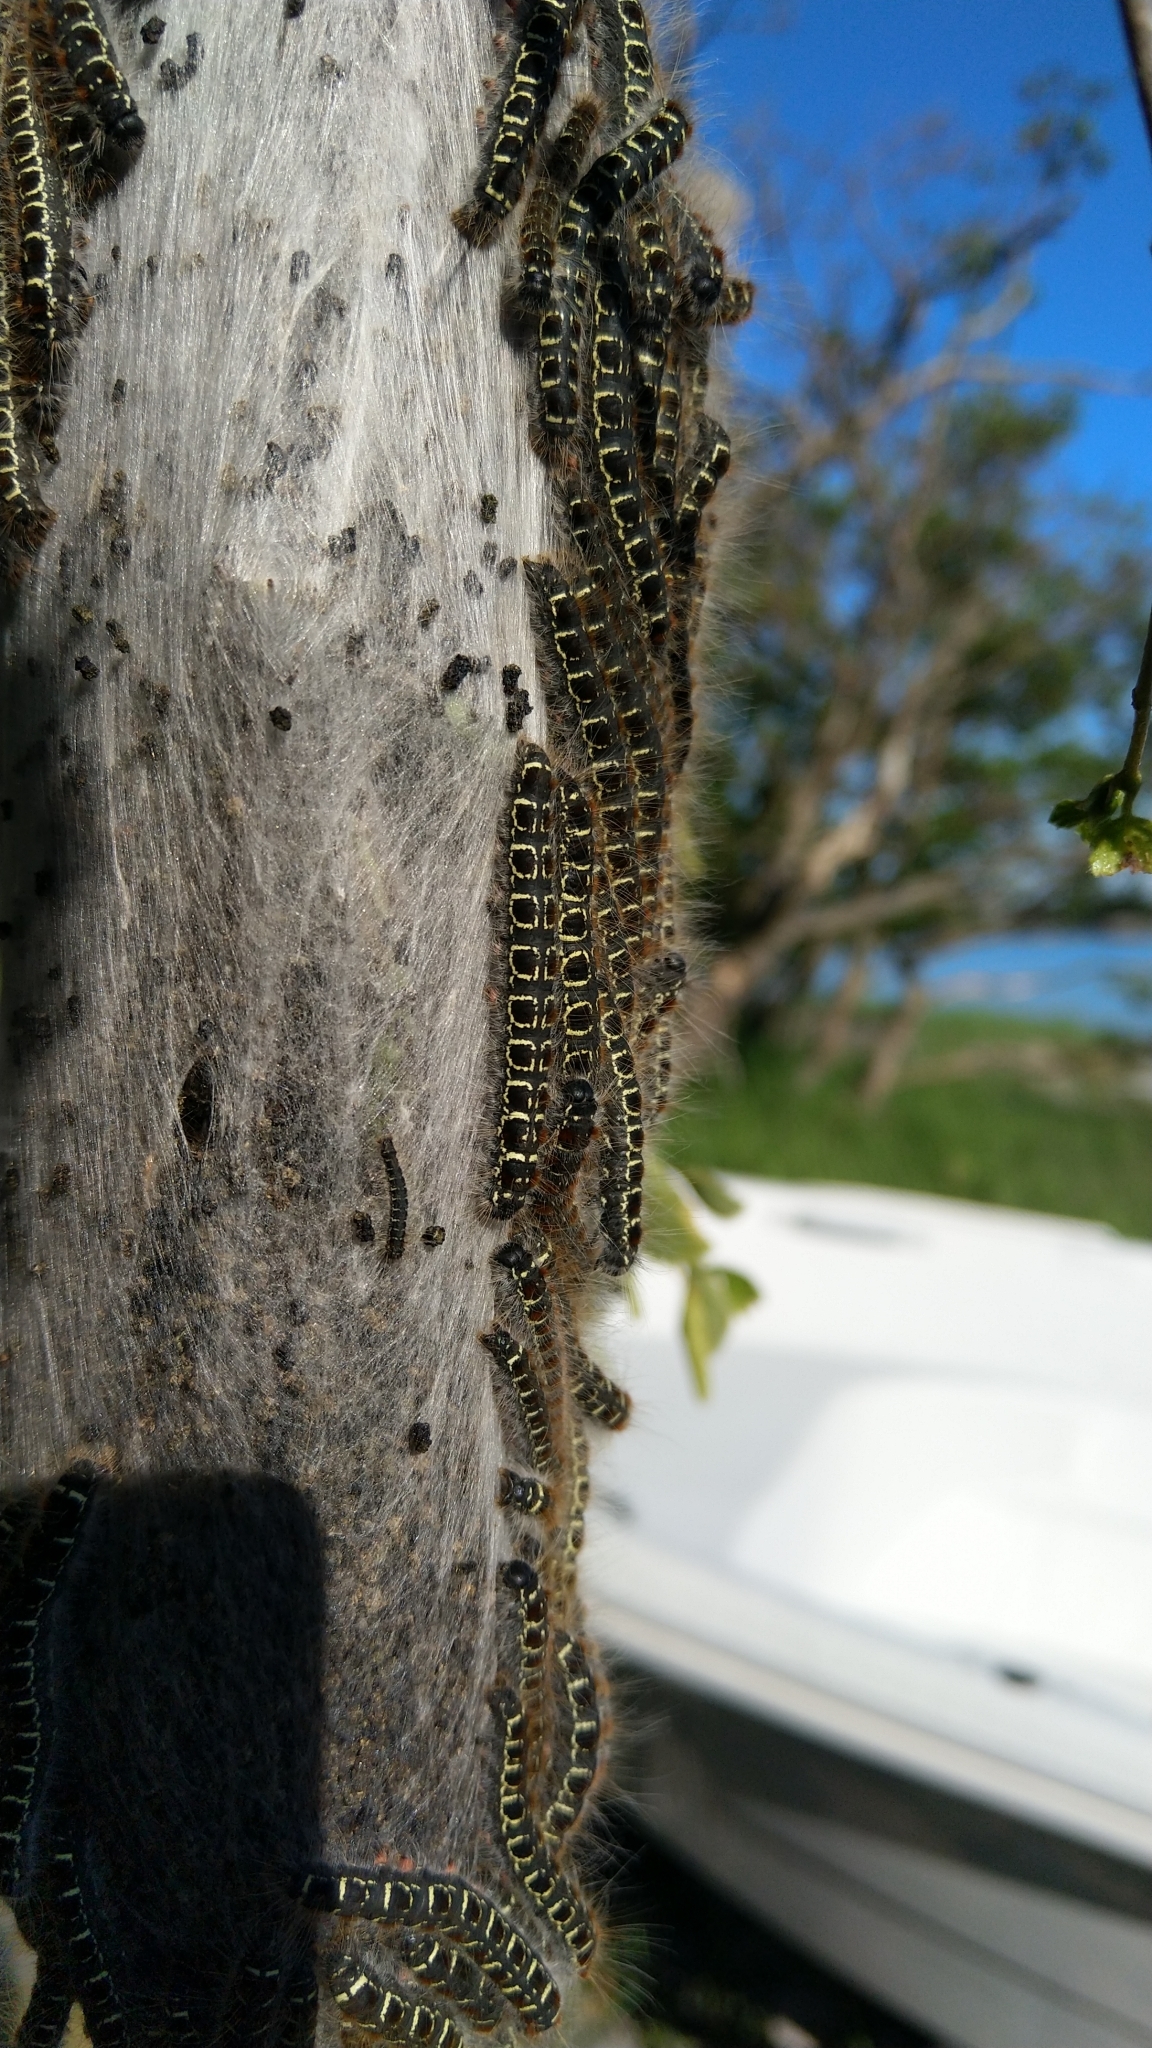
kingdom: Animalia
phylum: Arthropoda
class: Insecta
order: Lepidoptera
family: Lasiocampidae
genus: Eriogaster
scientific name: Eriogaster lanestris
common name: Small eggar
